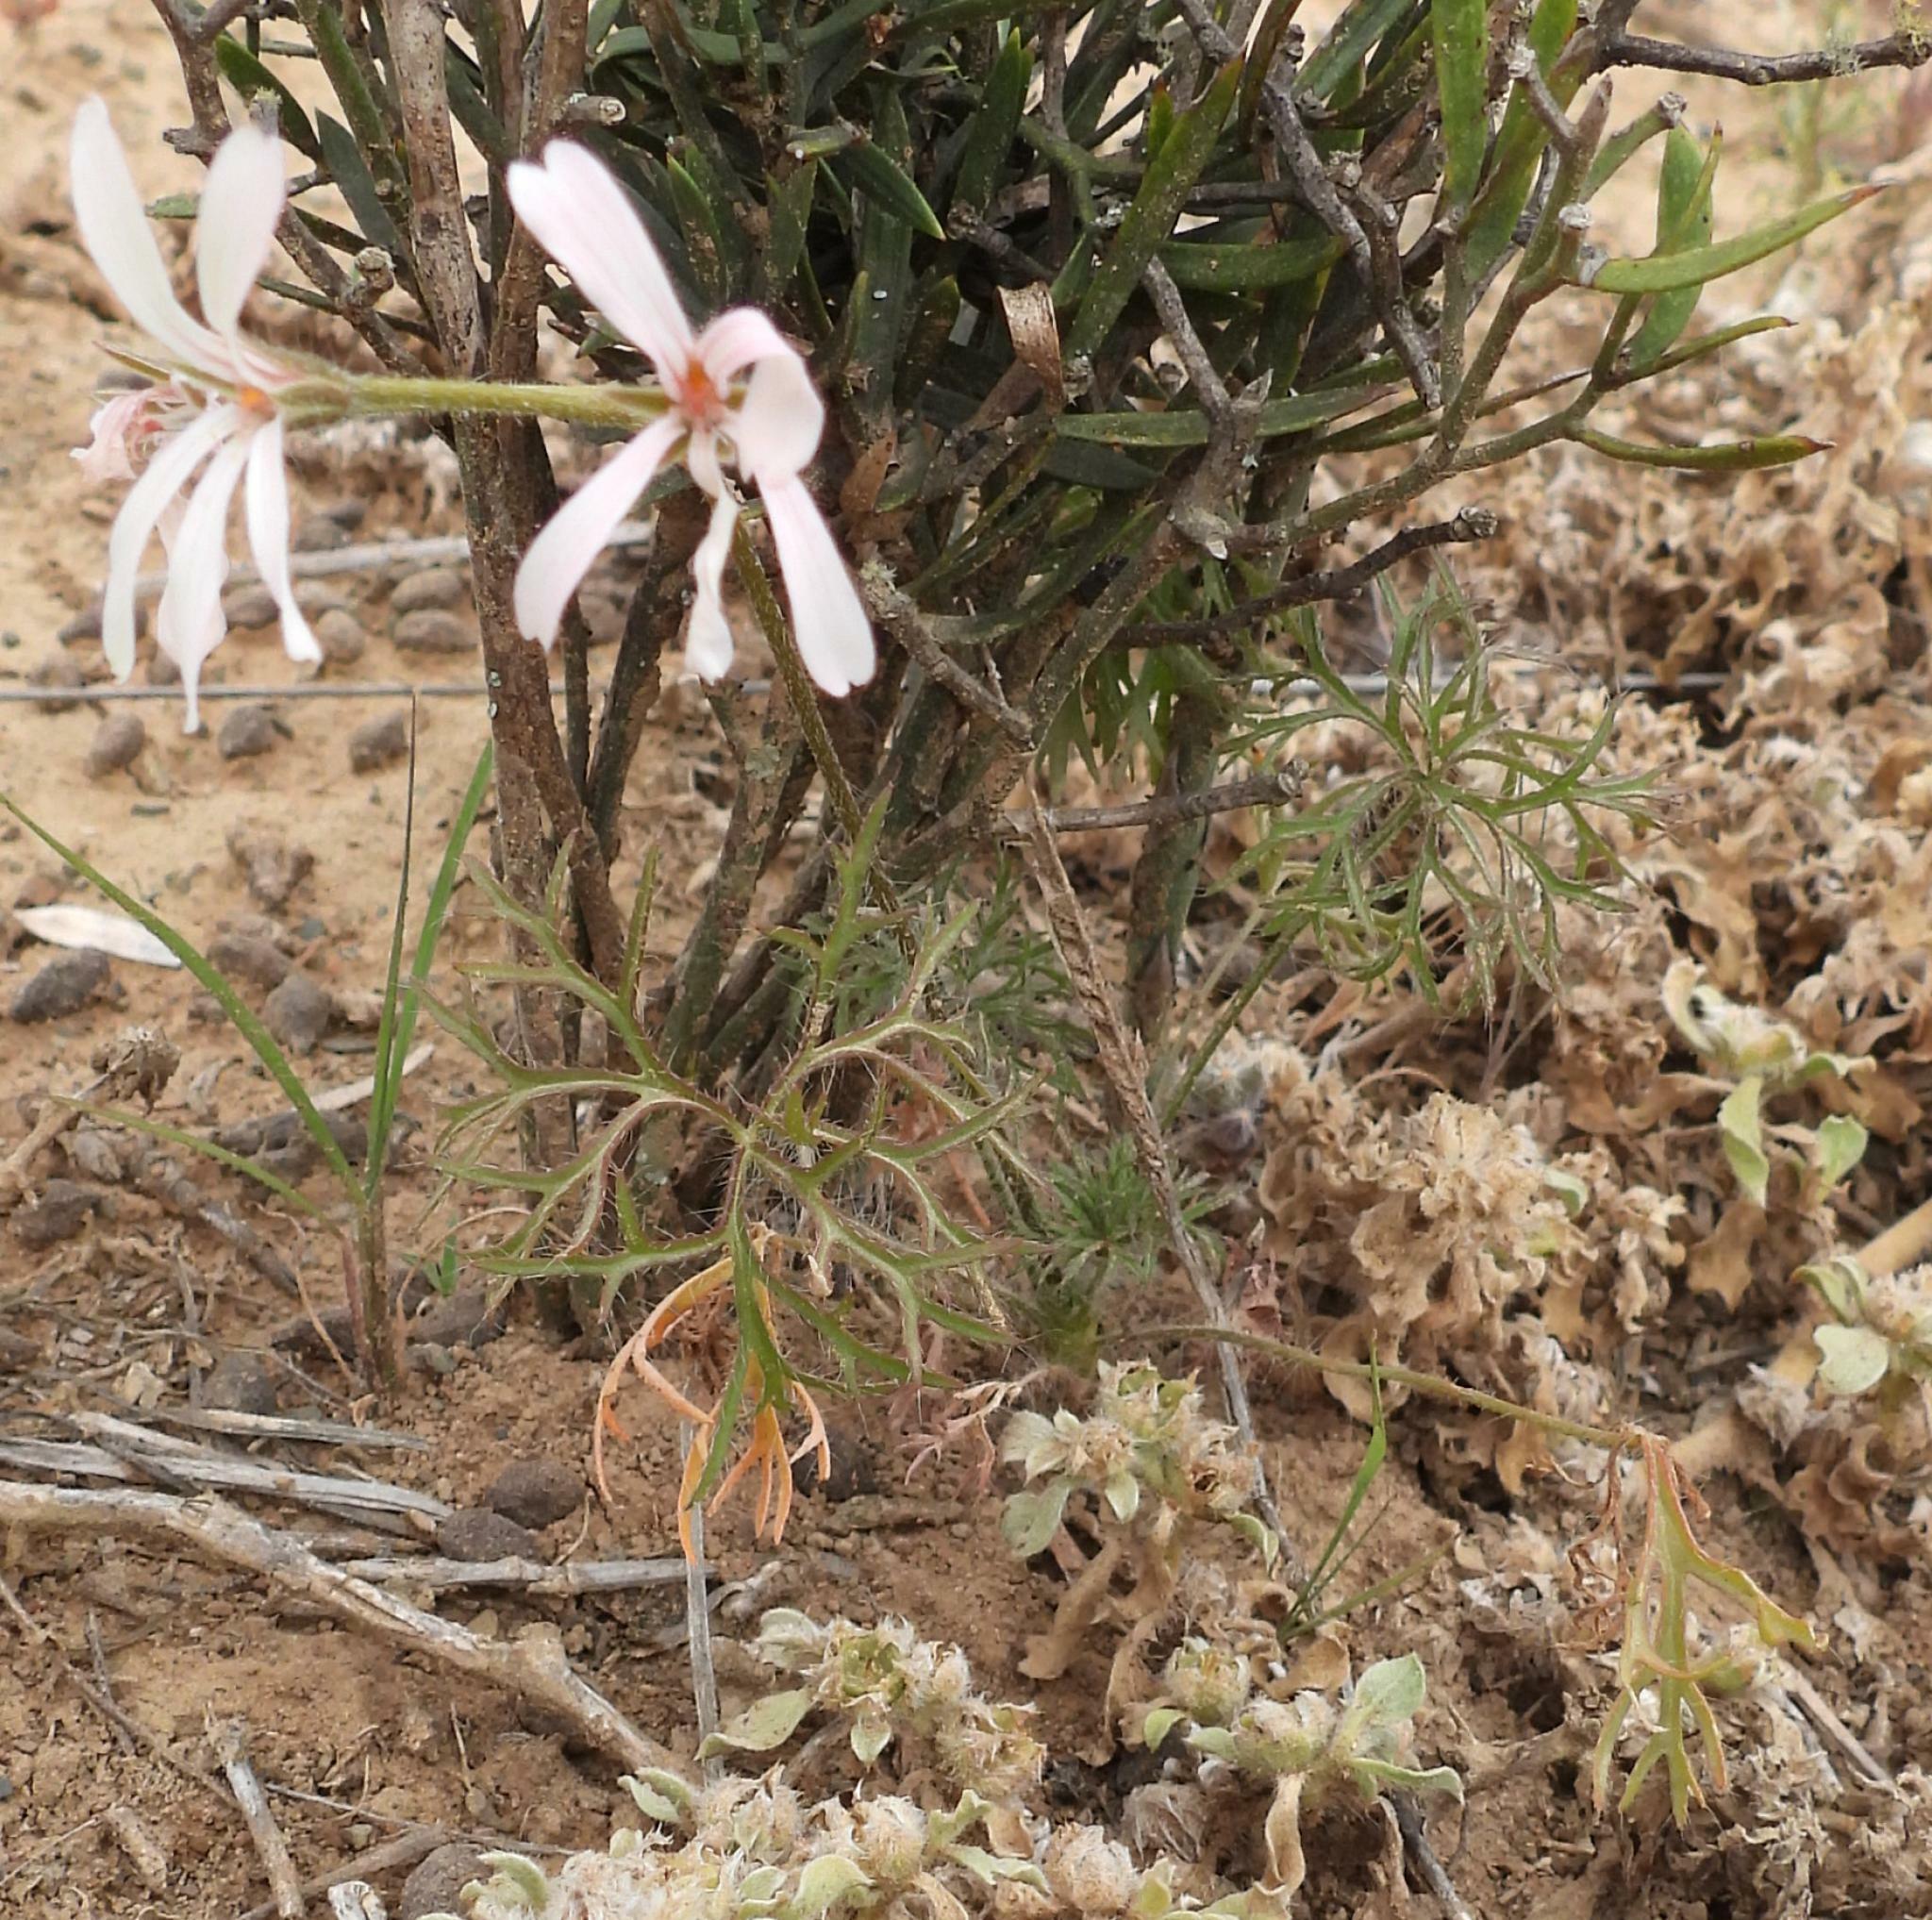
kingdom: Plantae
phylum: Tracheophyta
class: Magnoliopsida
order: Geraniales
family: Geraniaceae
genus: Pelargonium
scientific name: Pelargonium aridum
